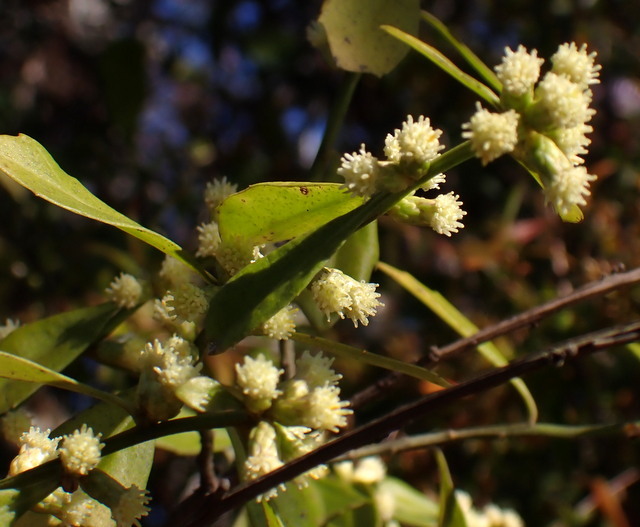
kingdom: Plantae
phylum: Tracheophyta
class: Magnoliopsida
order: Asterales
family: Asteraceae
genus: Baccharis
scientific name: Baccharis glomeruliflora
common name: Silverling groundsel bush
